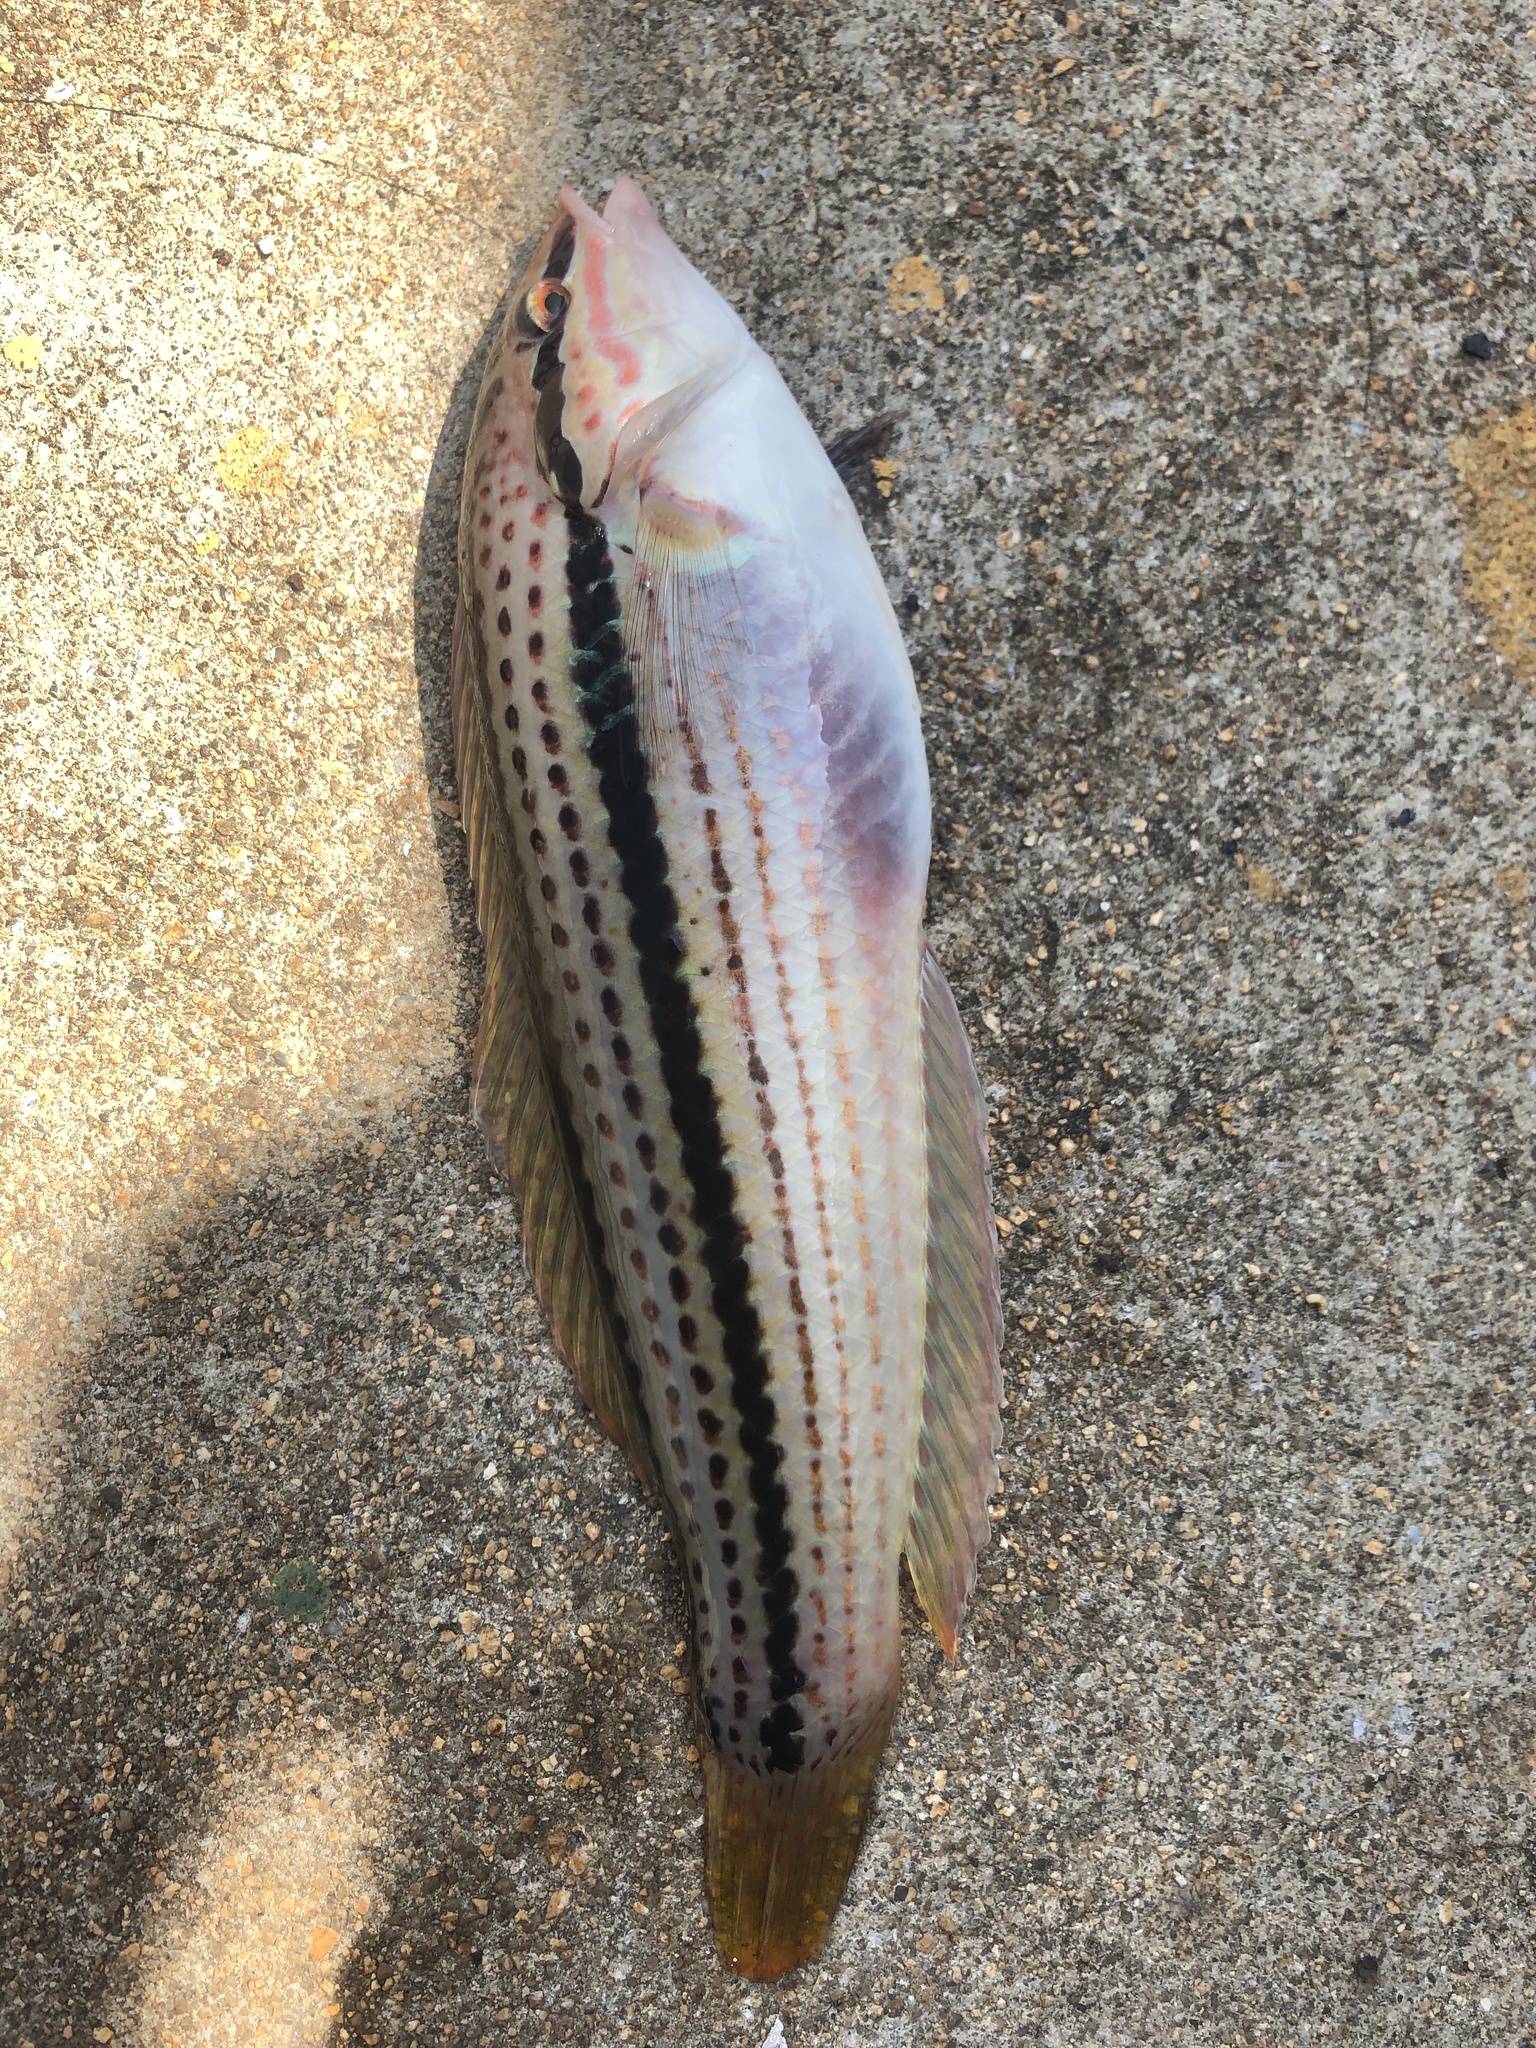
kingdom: Animalia
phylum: Chordata
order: Perciformes
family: Labridae
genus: Parajulis
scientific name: Parajulis poecilepterus
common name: Multicolorfin rainbowfish
